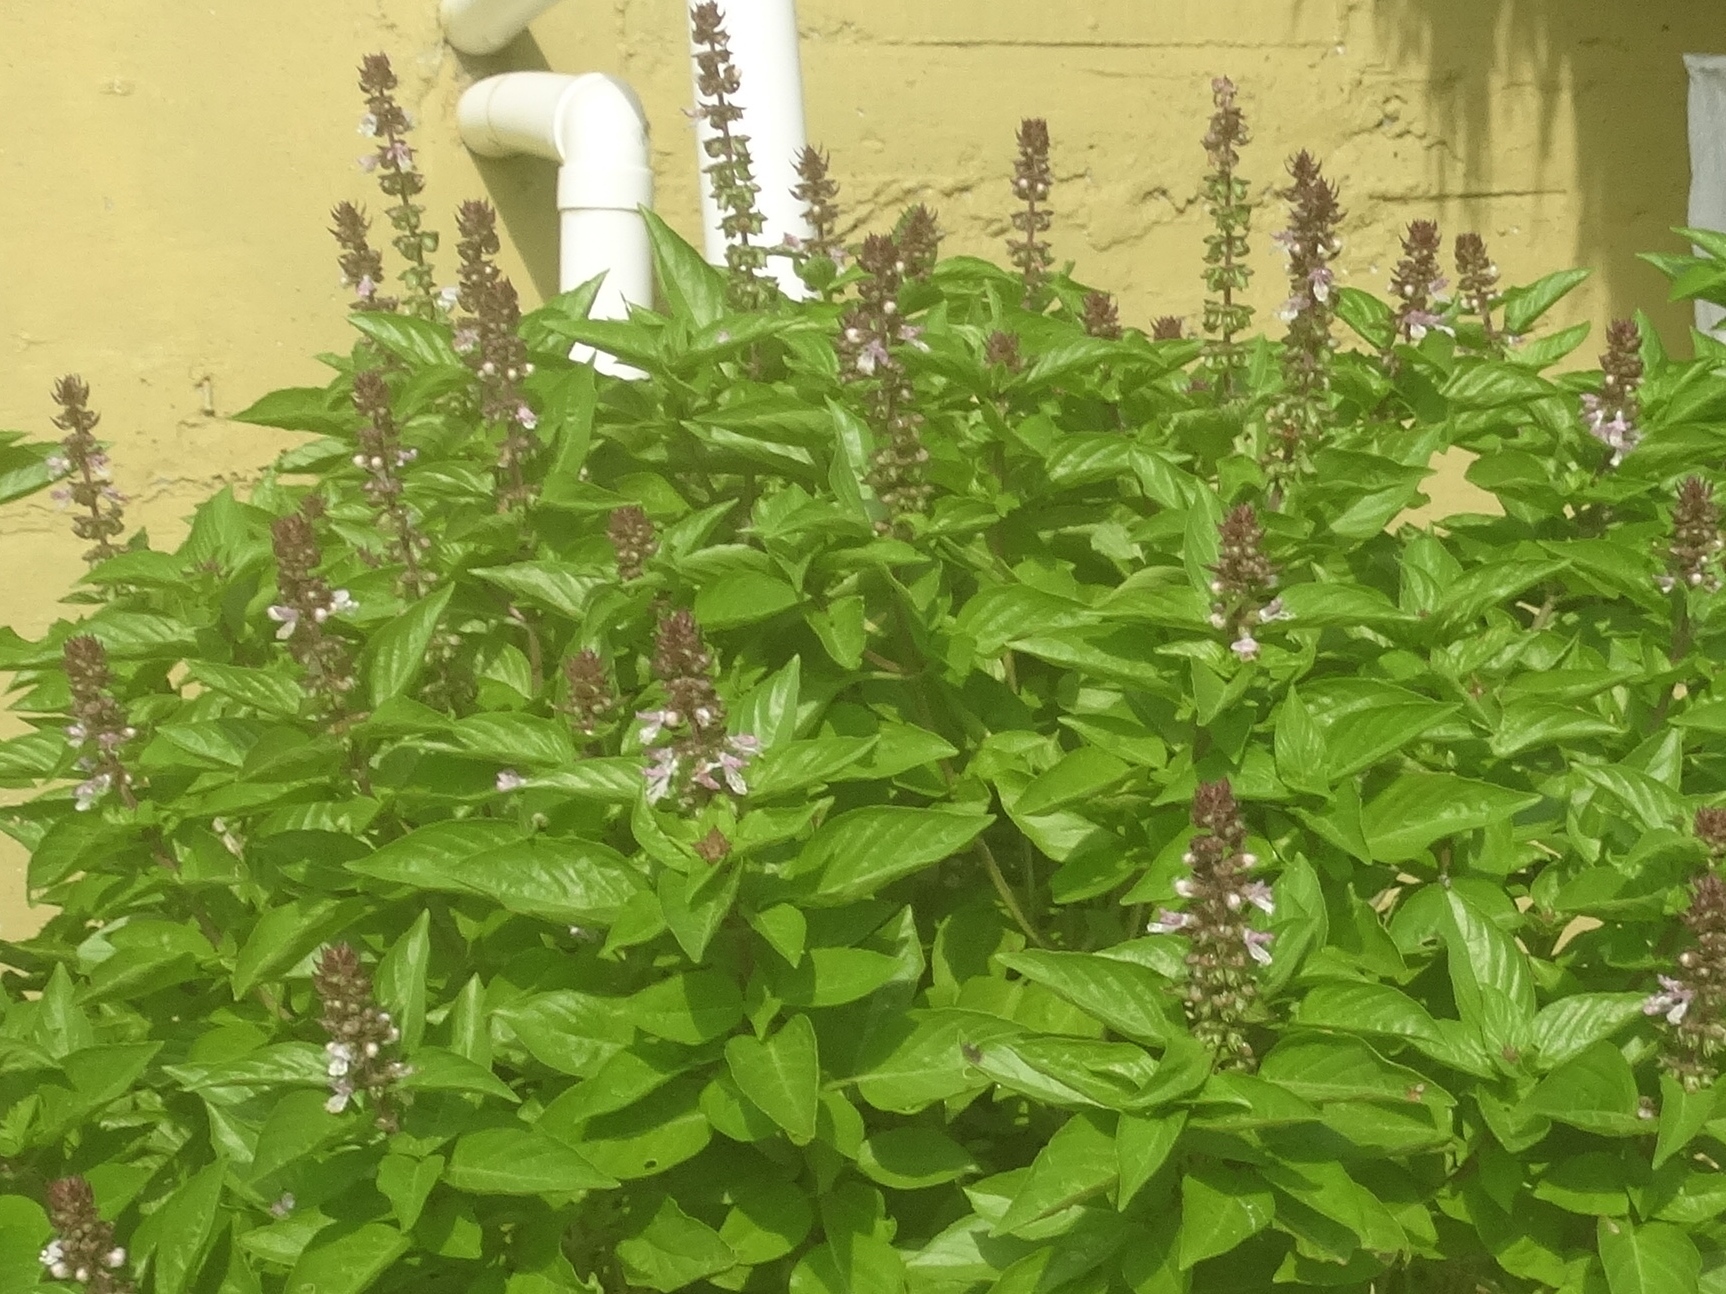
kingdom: Plantae
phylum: Tracheophyta
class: Magnoliopsida
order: Lamiales
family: Lamiaceae
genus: Ocimum
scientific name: Ocimum campechianum
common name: Mosquito basil
